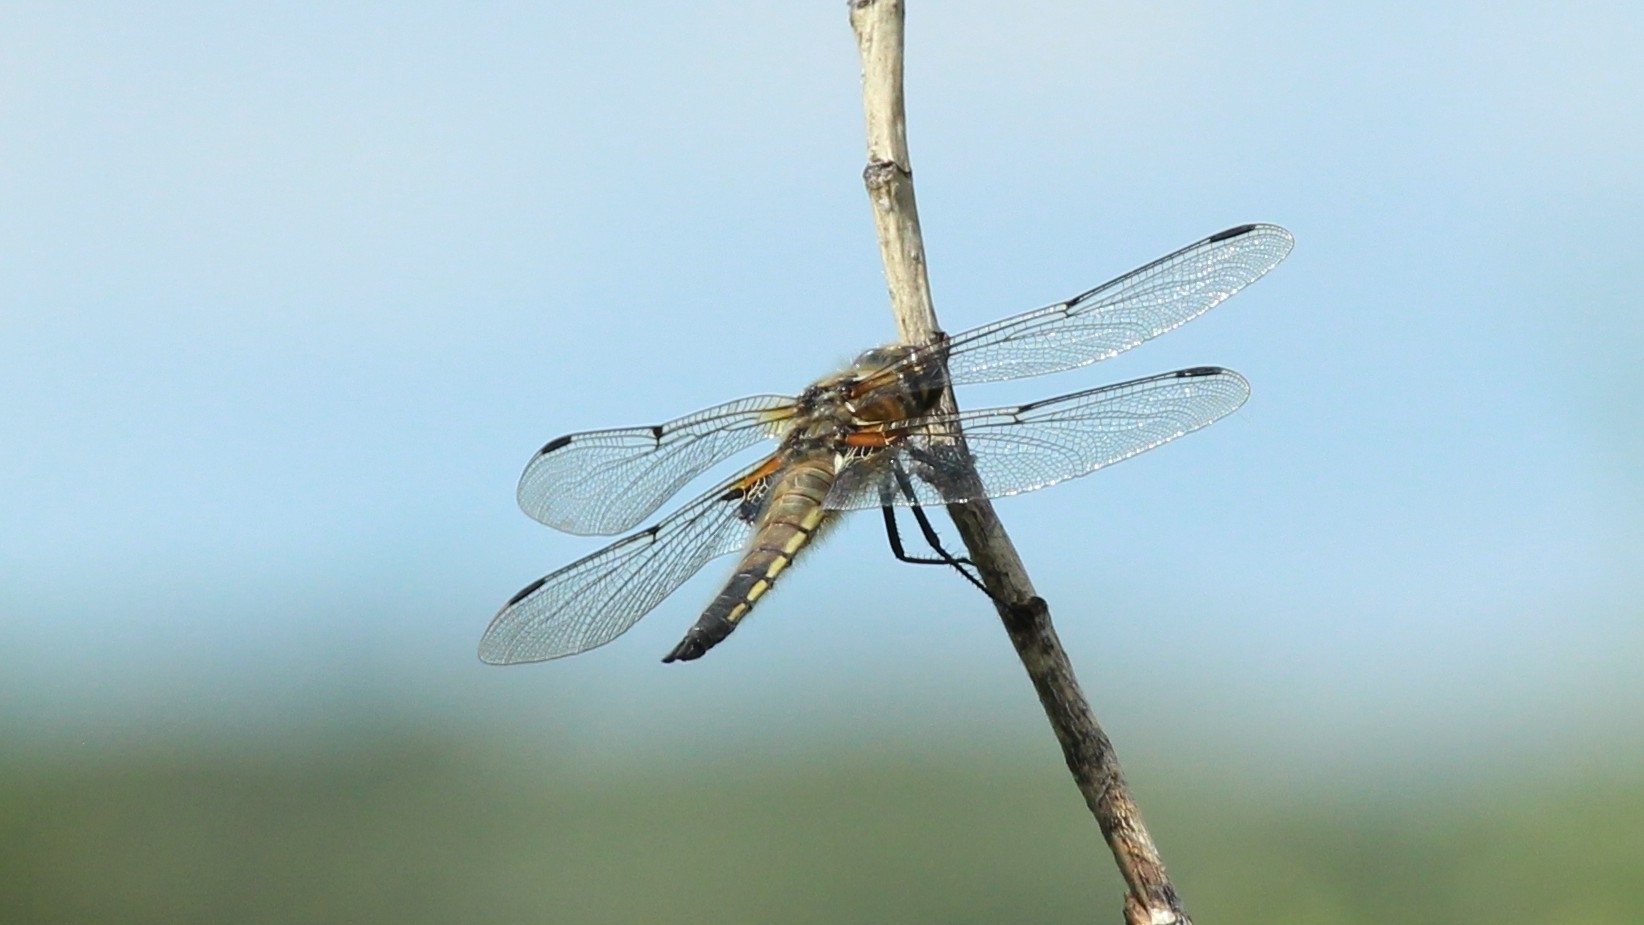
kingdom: Animalia
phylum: Arthropoda
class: Insecta
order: Odonata
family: Libellulidae
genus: Libellula
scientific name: Libellula quadrimaculata
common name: Four-spotted chaser
